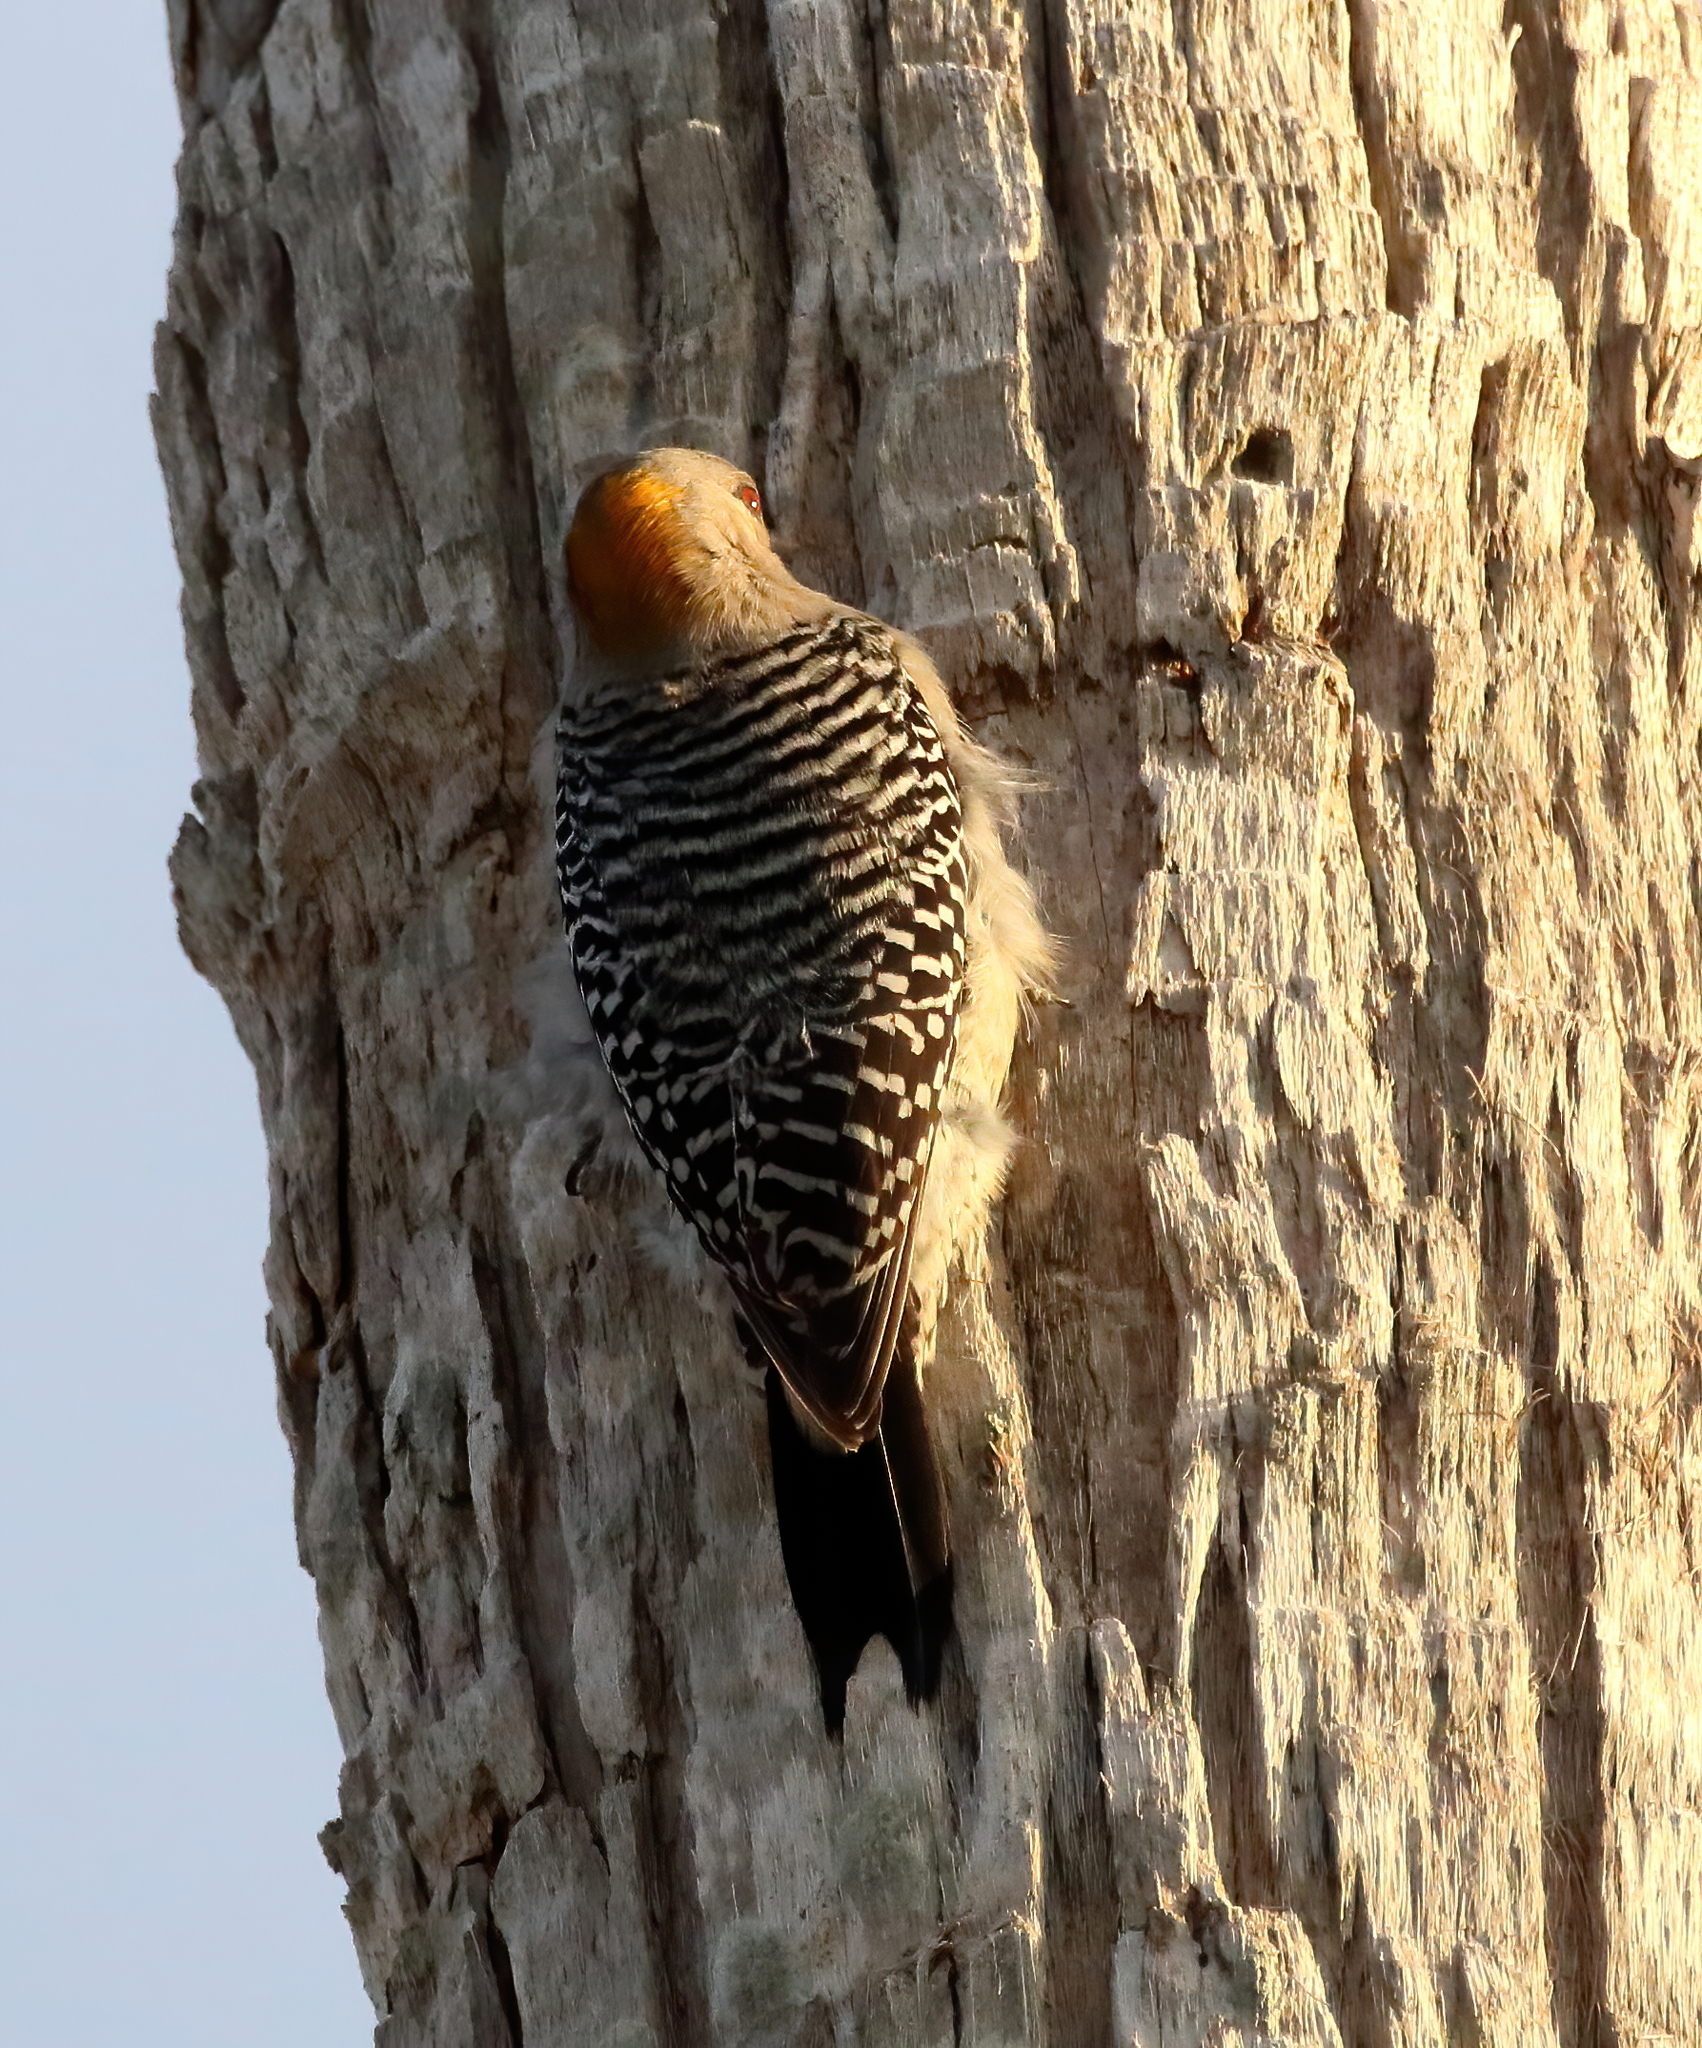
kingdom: Animalia
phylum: Chordata
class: Aves
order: Piciformes
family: Picidae
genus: Melanerpes
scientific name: Melanerpes aurifrons
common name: Golden-fronted woodpecker
